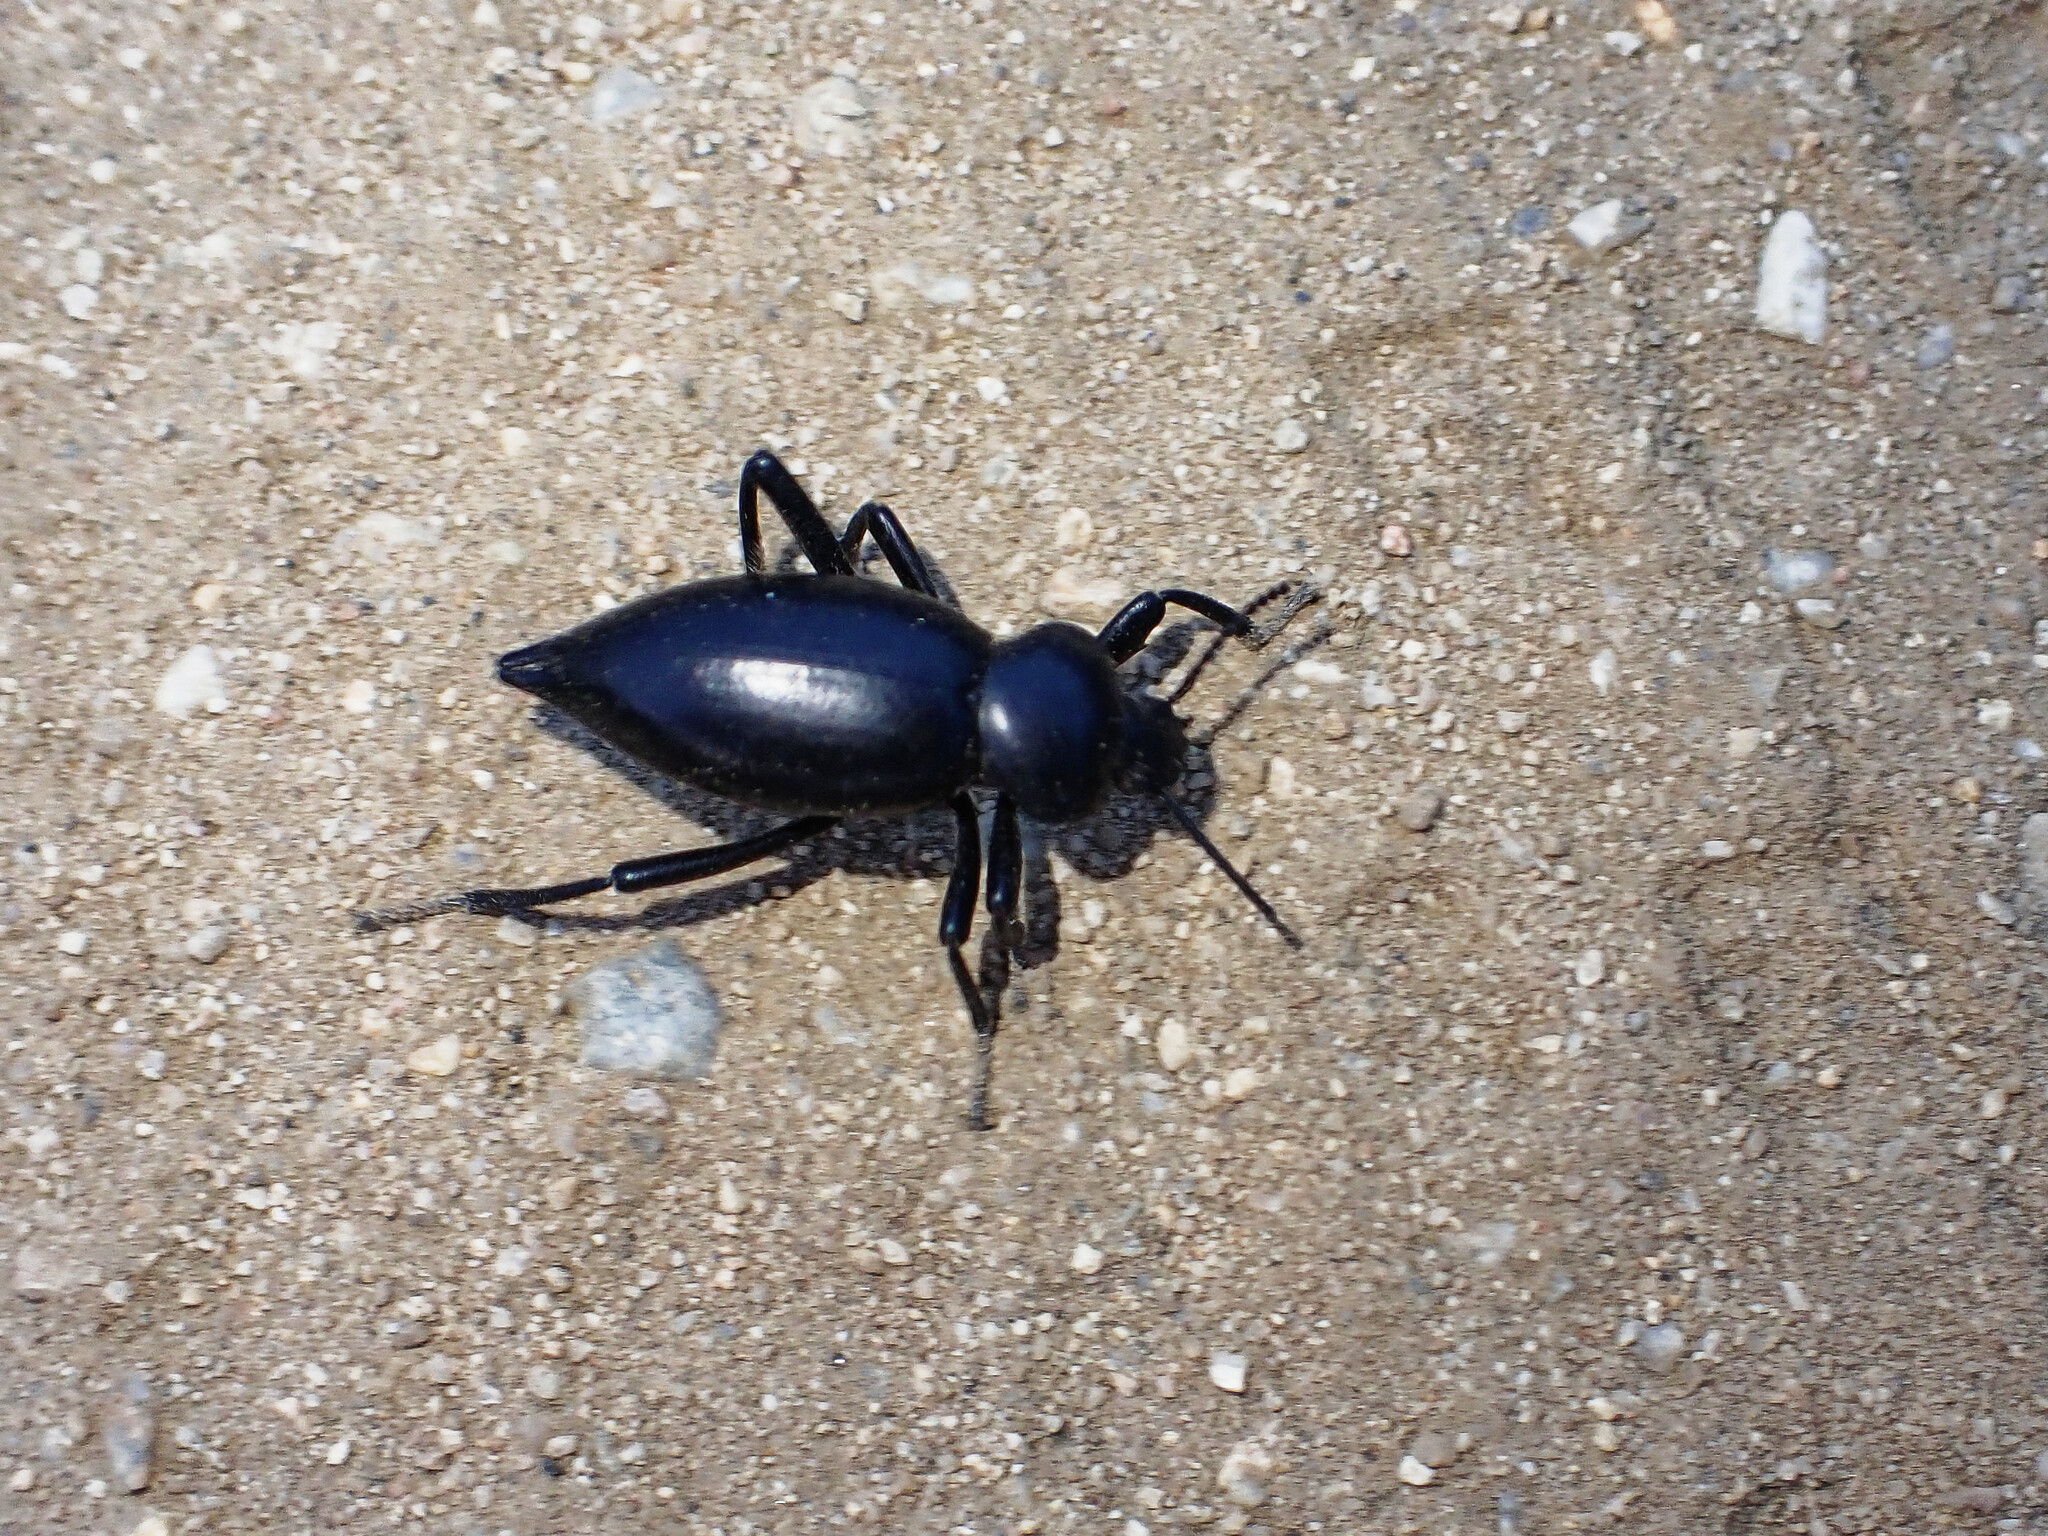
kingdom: Animalia
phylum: Arthropoda
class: Insecta
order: Coleoptera
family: Tenebrionidae
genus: Eleodes
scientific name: Eleodes acuticauda
